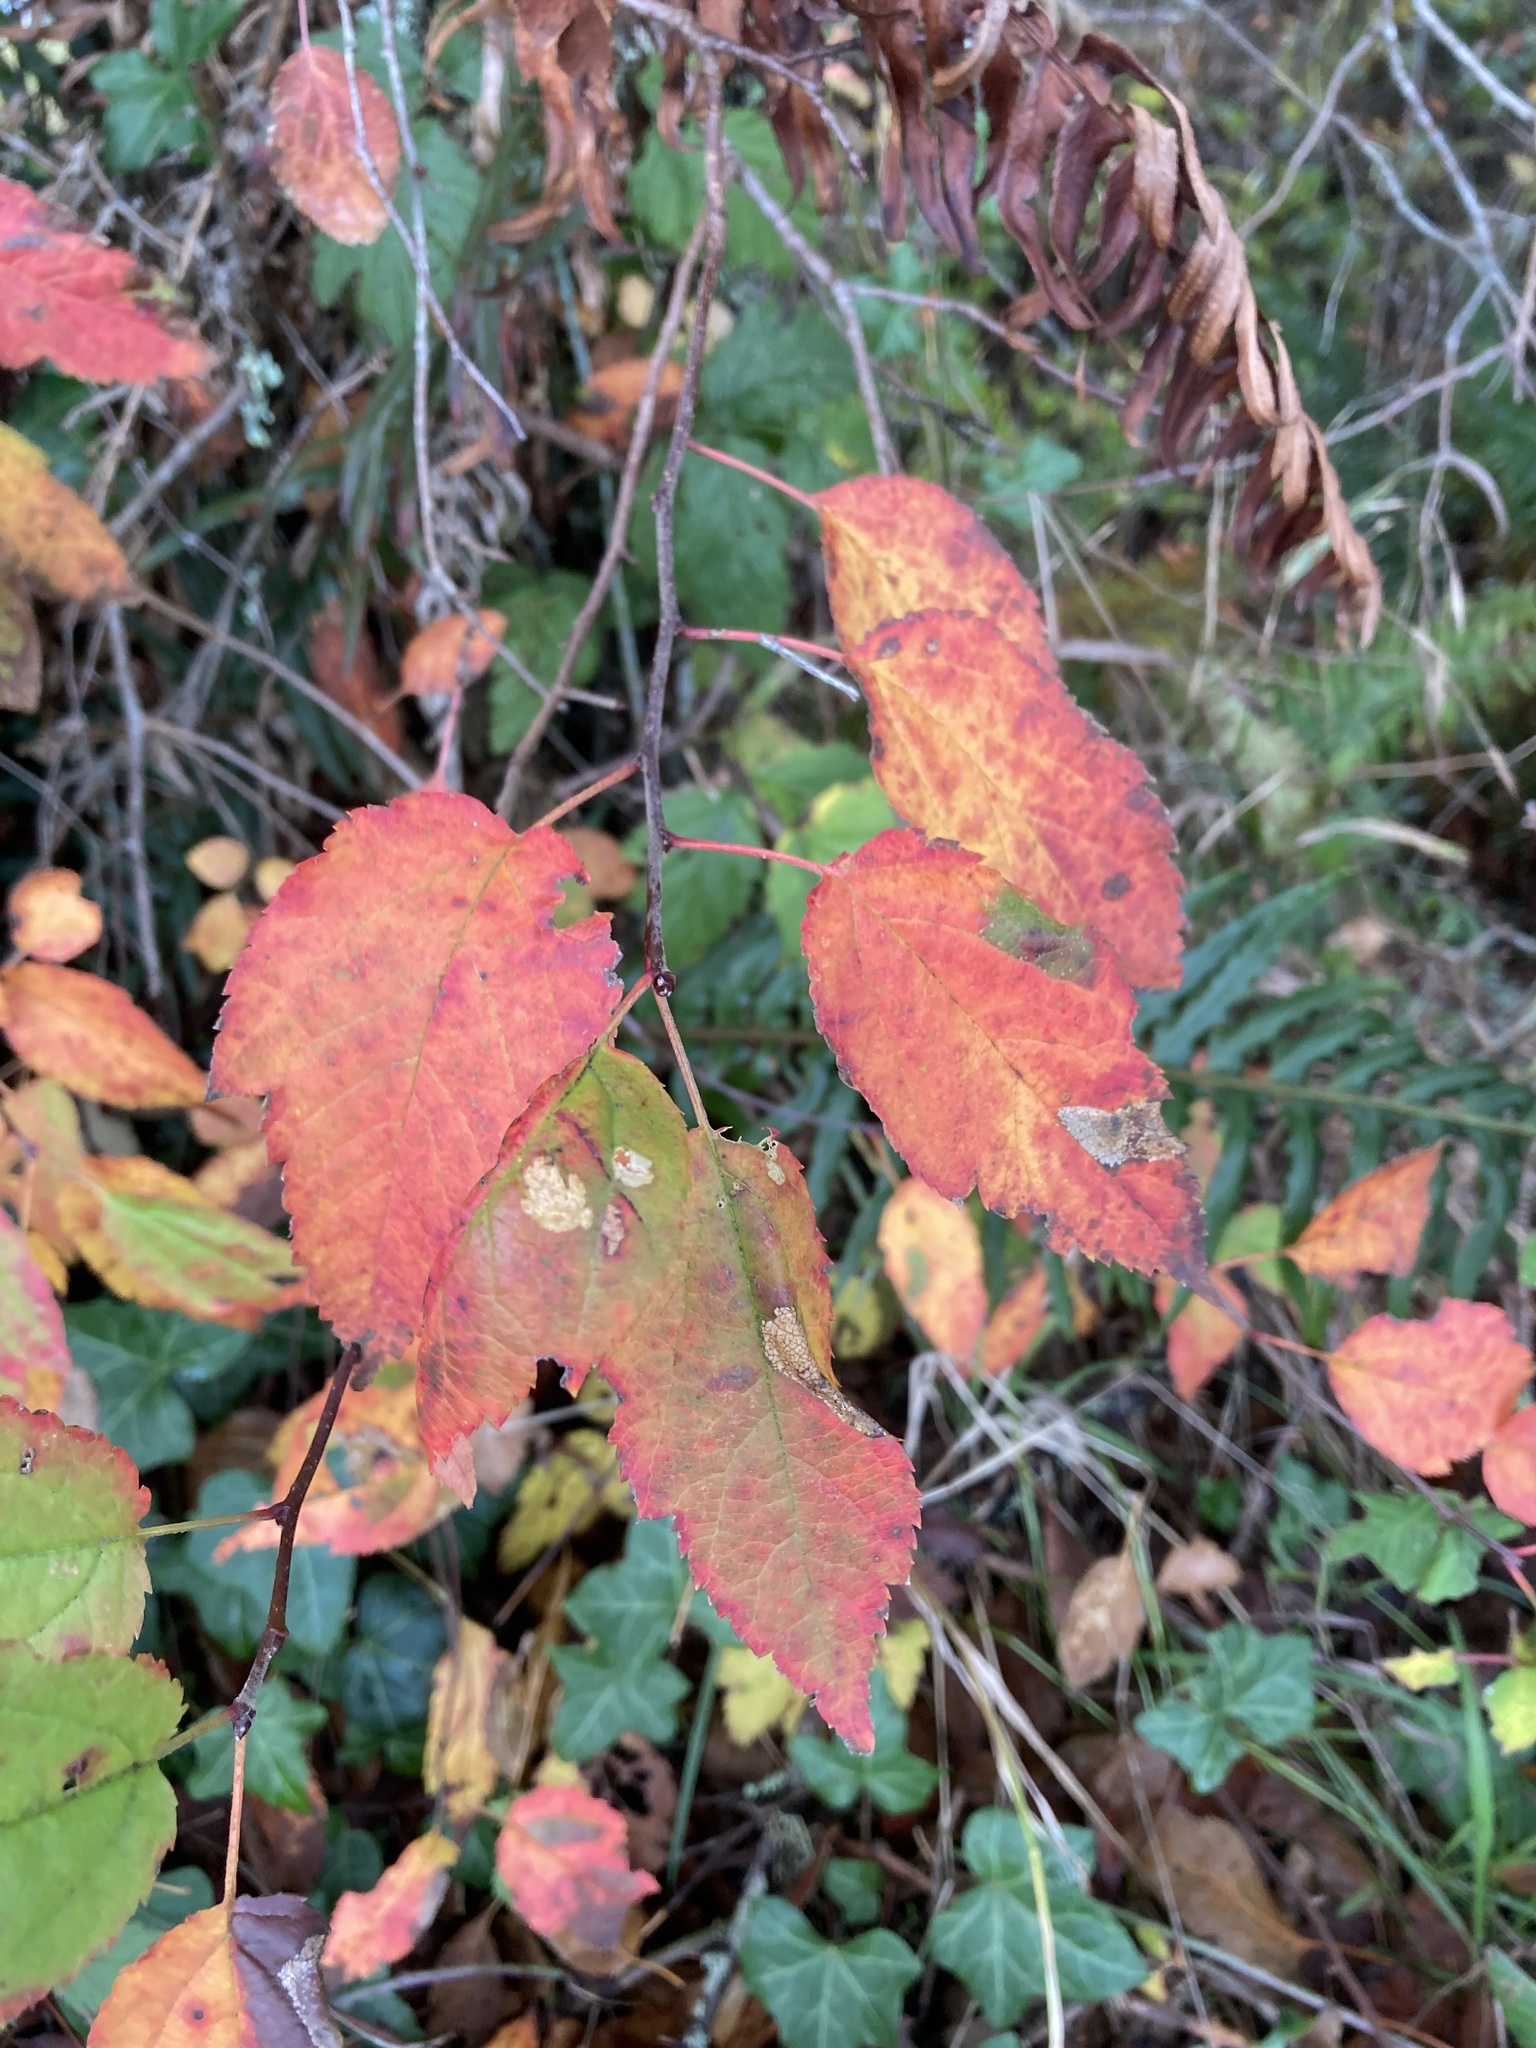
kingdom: Plantae
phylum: Tracheophyta
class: Magnoliopsida
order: Rosales
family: Rosaceae
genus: Malus
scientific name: Malus fusca
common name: Oregon crab apple
